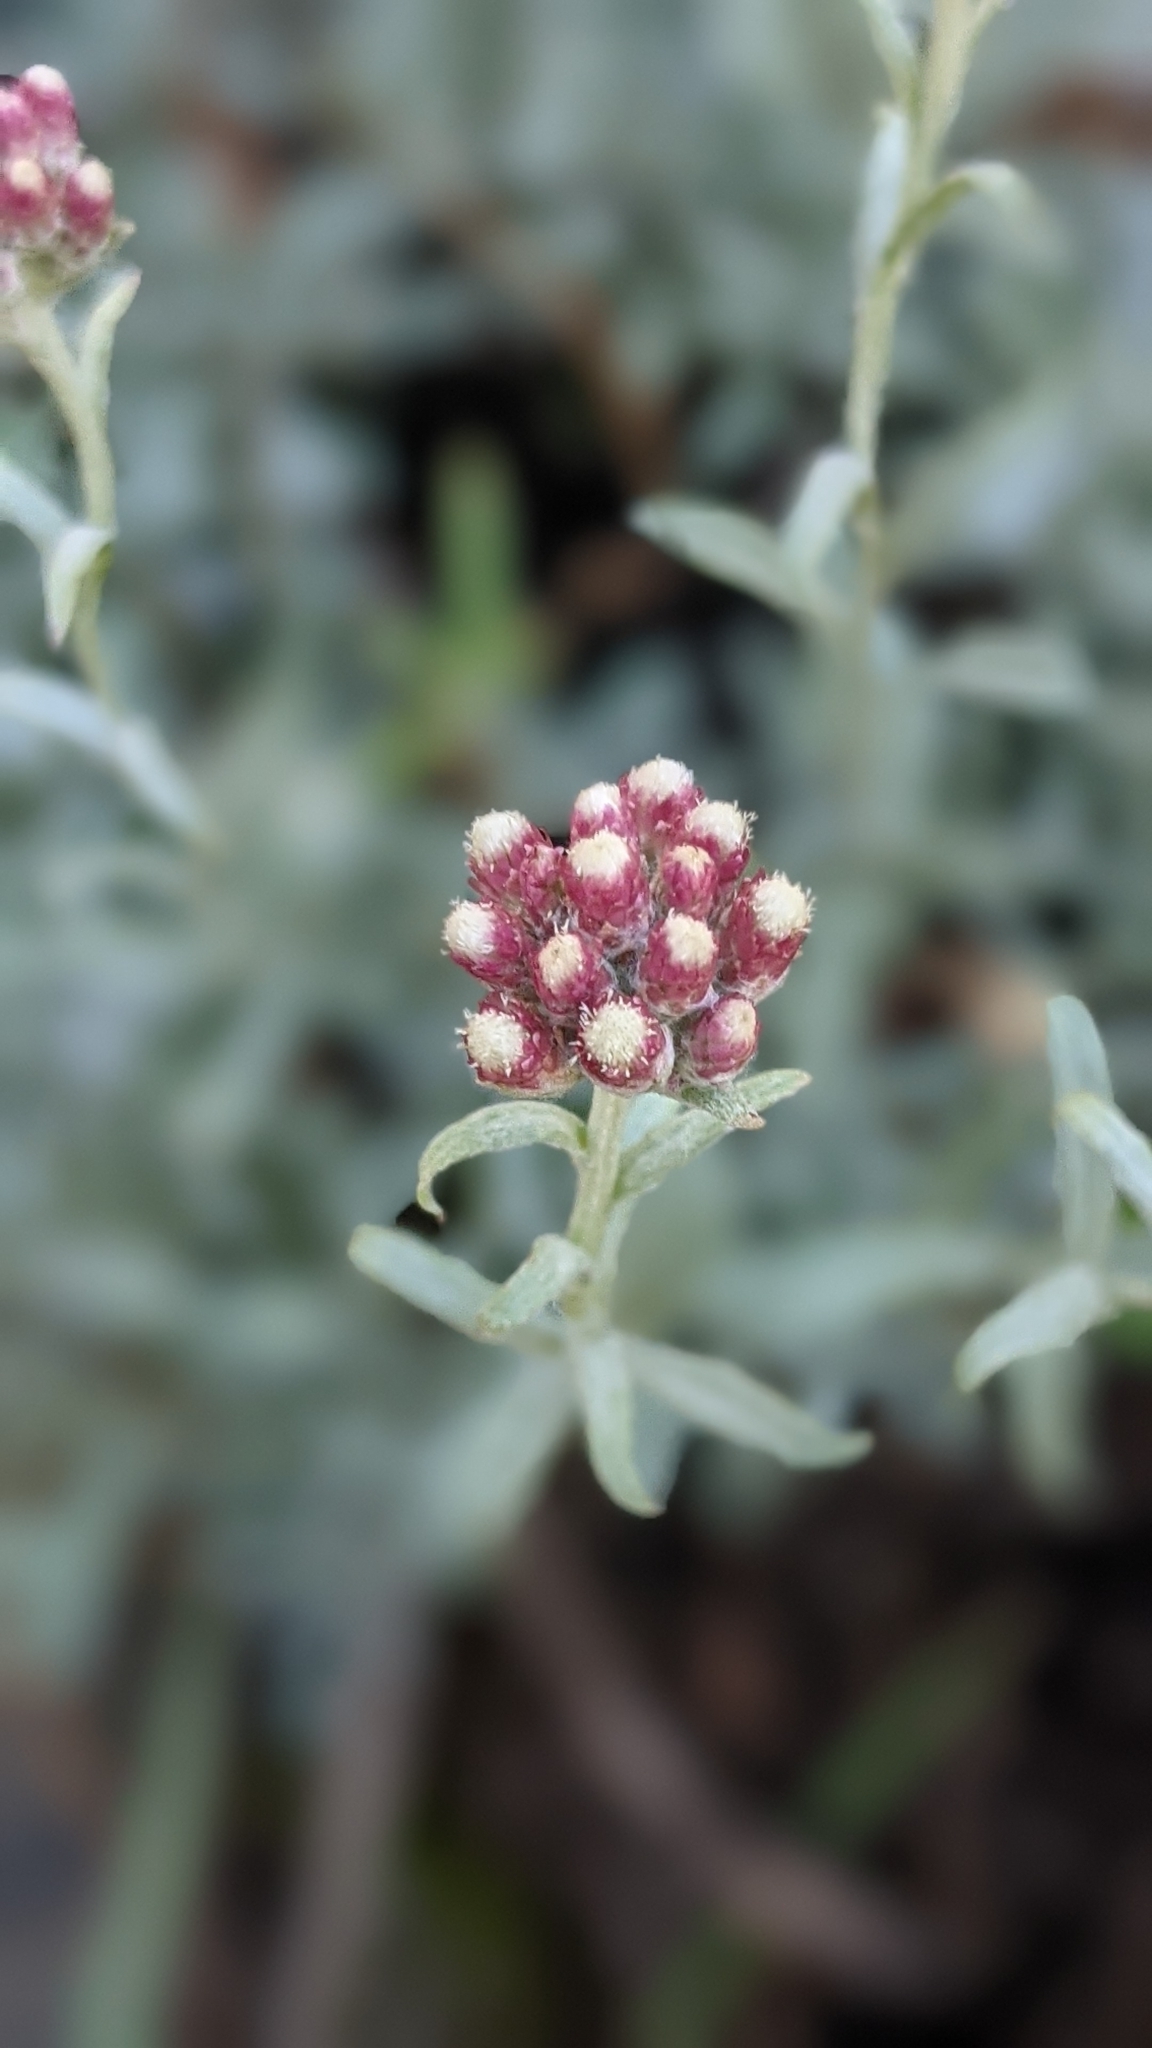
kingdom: Plantae
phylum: Tracheophyta
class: Magnoliopsida
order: Asterales
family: Asteraceae
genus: Antennaria
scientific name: Antennaria rosea
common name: Rosy pussytoes
